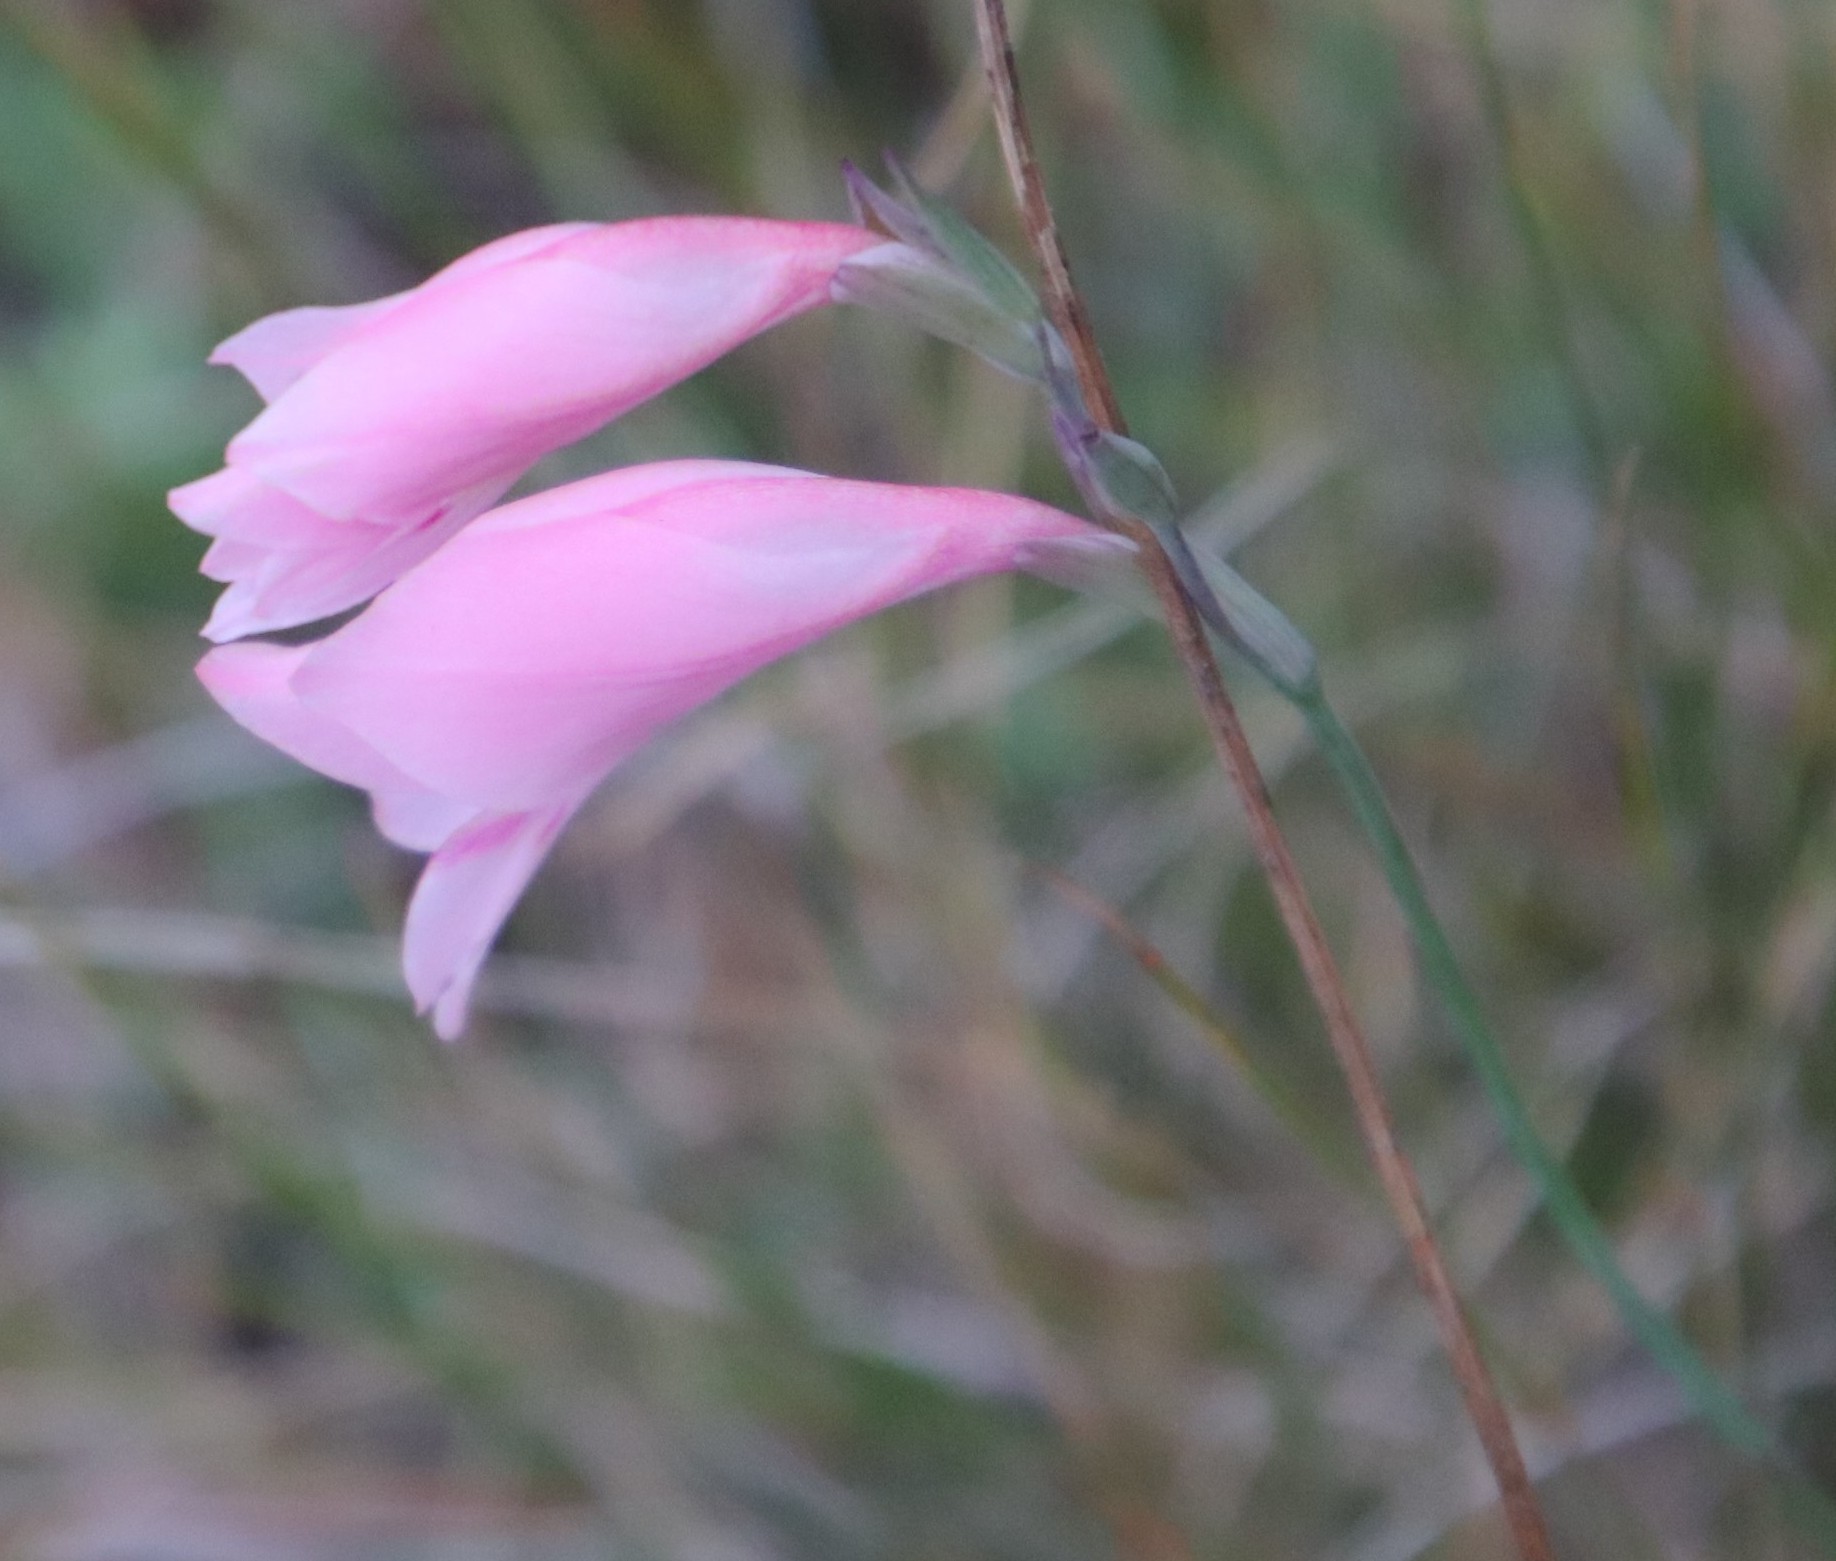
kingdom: Plantae
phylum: Tracheophyta
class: Liliopsida
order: Asparagales
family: Iridaceae
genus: Gladiolus
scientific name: Gladiolus brevifolius
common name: March pypie
